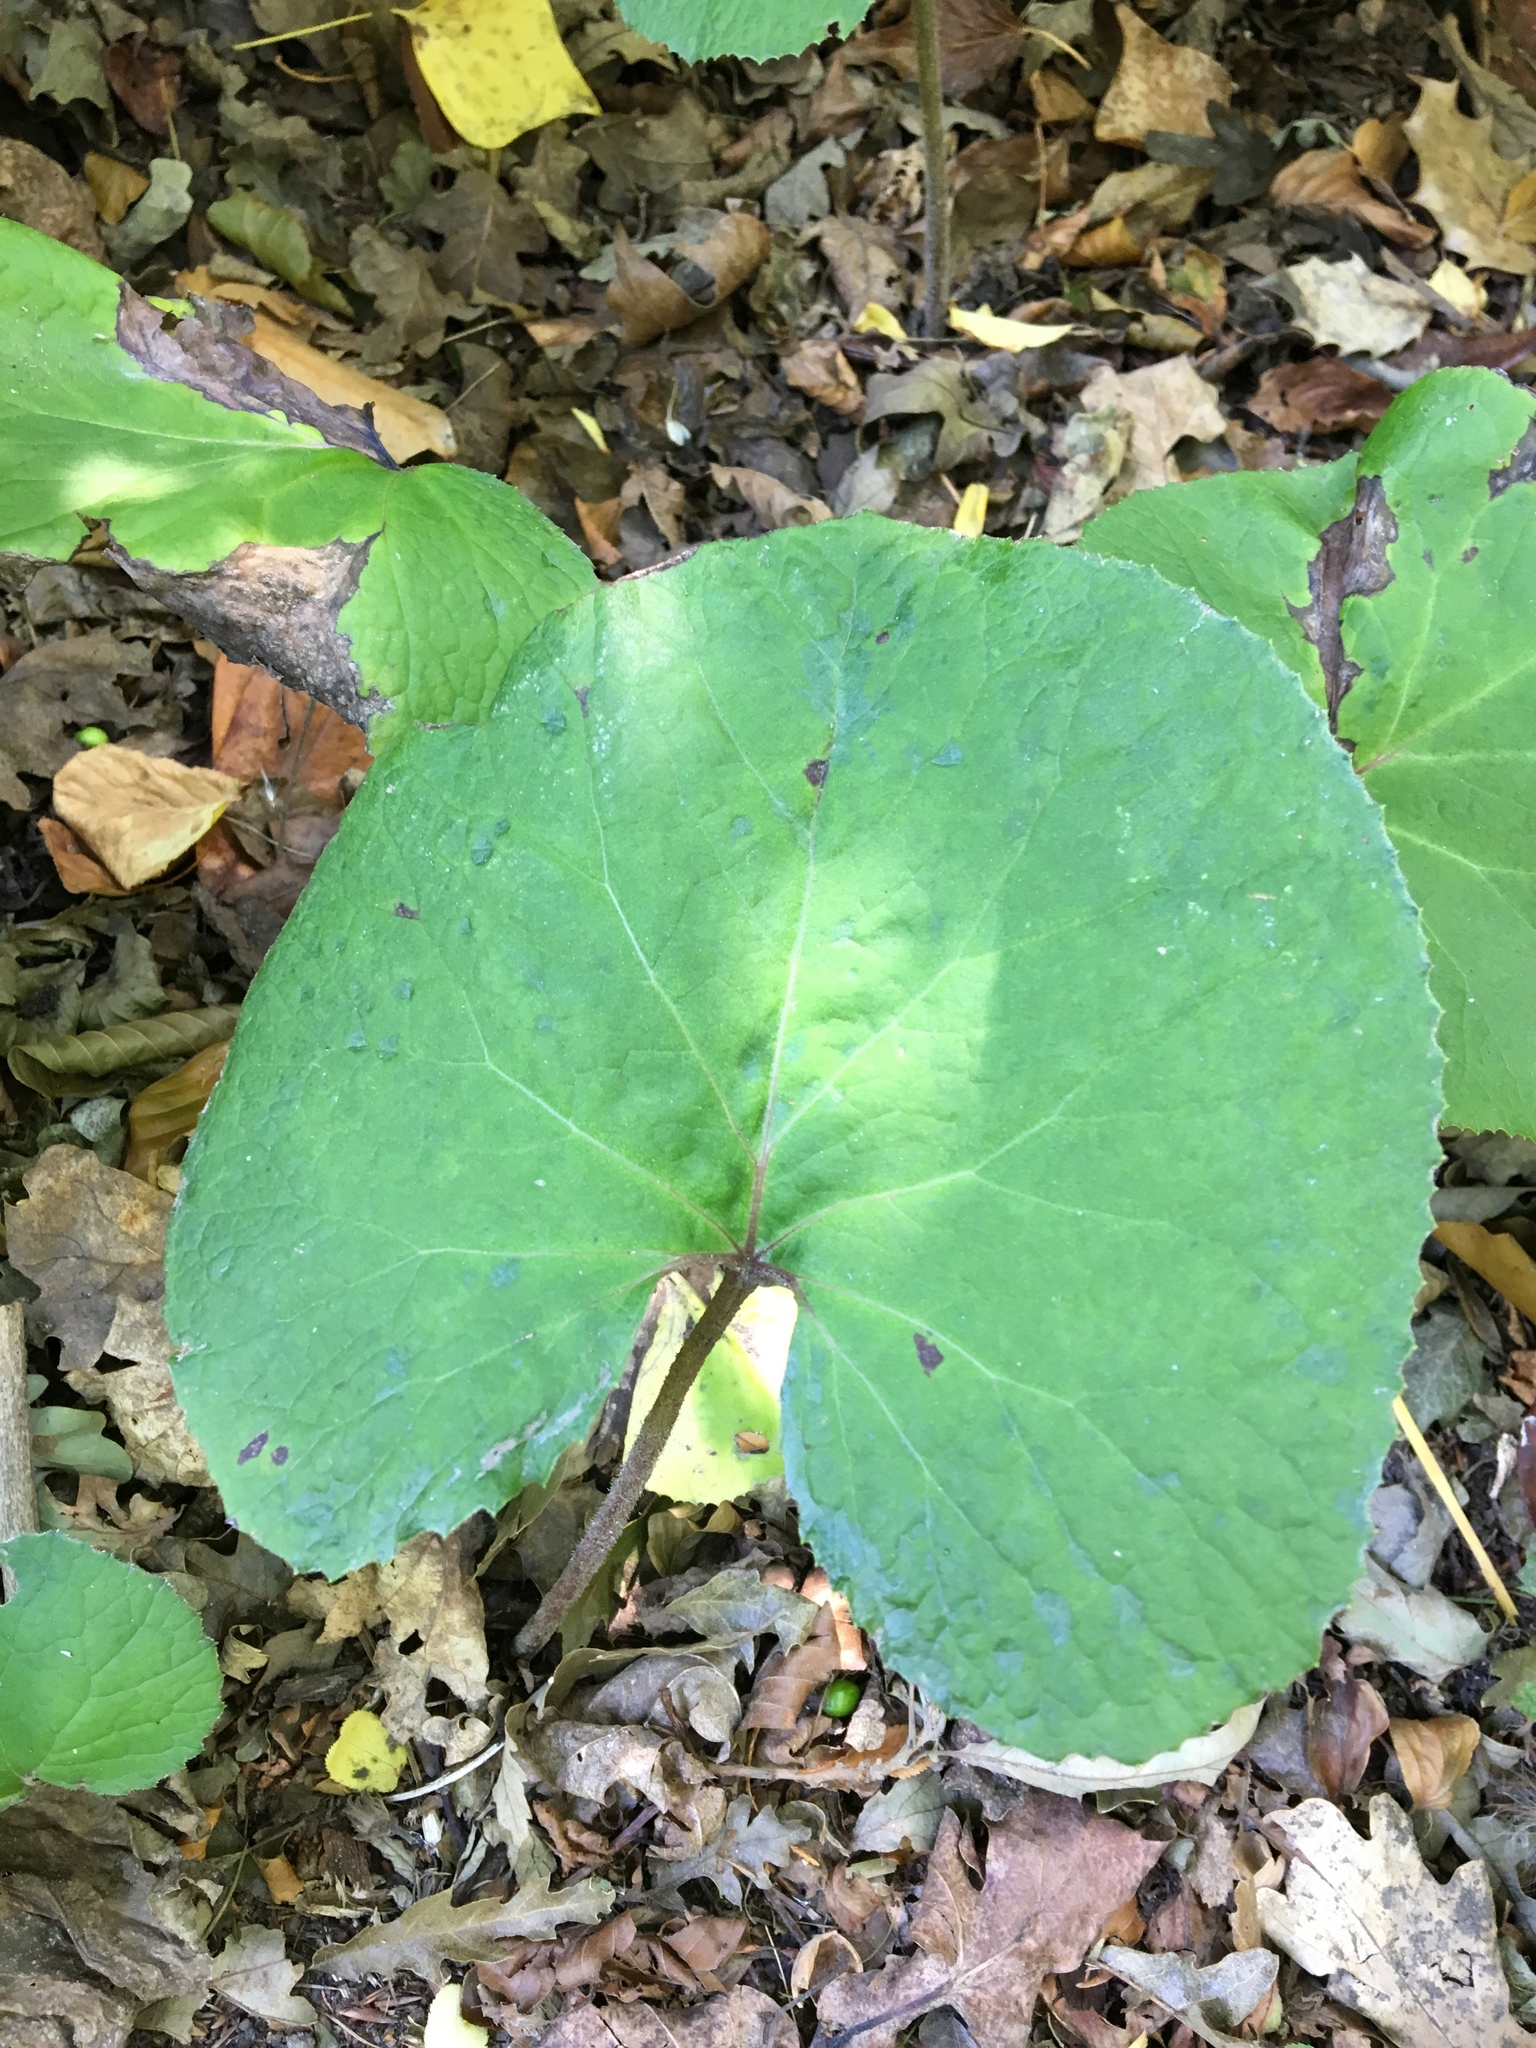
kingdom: Plantae
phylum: Tracheophyta
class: Magnoliopsida
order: Asterales
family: Asteraceae
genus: Petasites
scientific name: Petasites pyrenaicus
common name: Winter heliotrope
